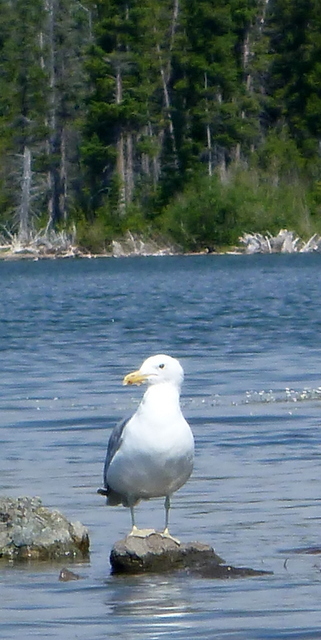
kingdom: Animalia
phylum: Chordata
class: Aves
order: Charadriiformes
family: Laridae
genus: Larus
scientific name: Larus californicus
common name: California gull
